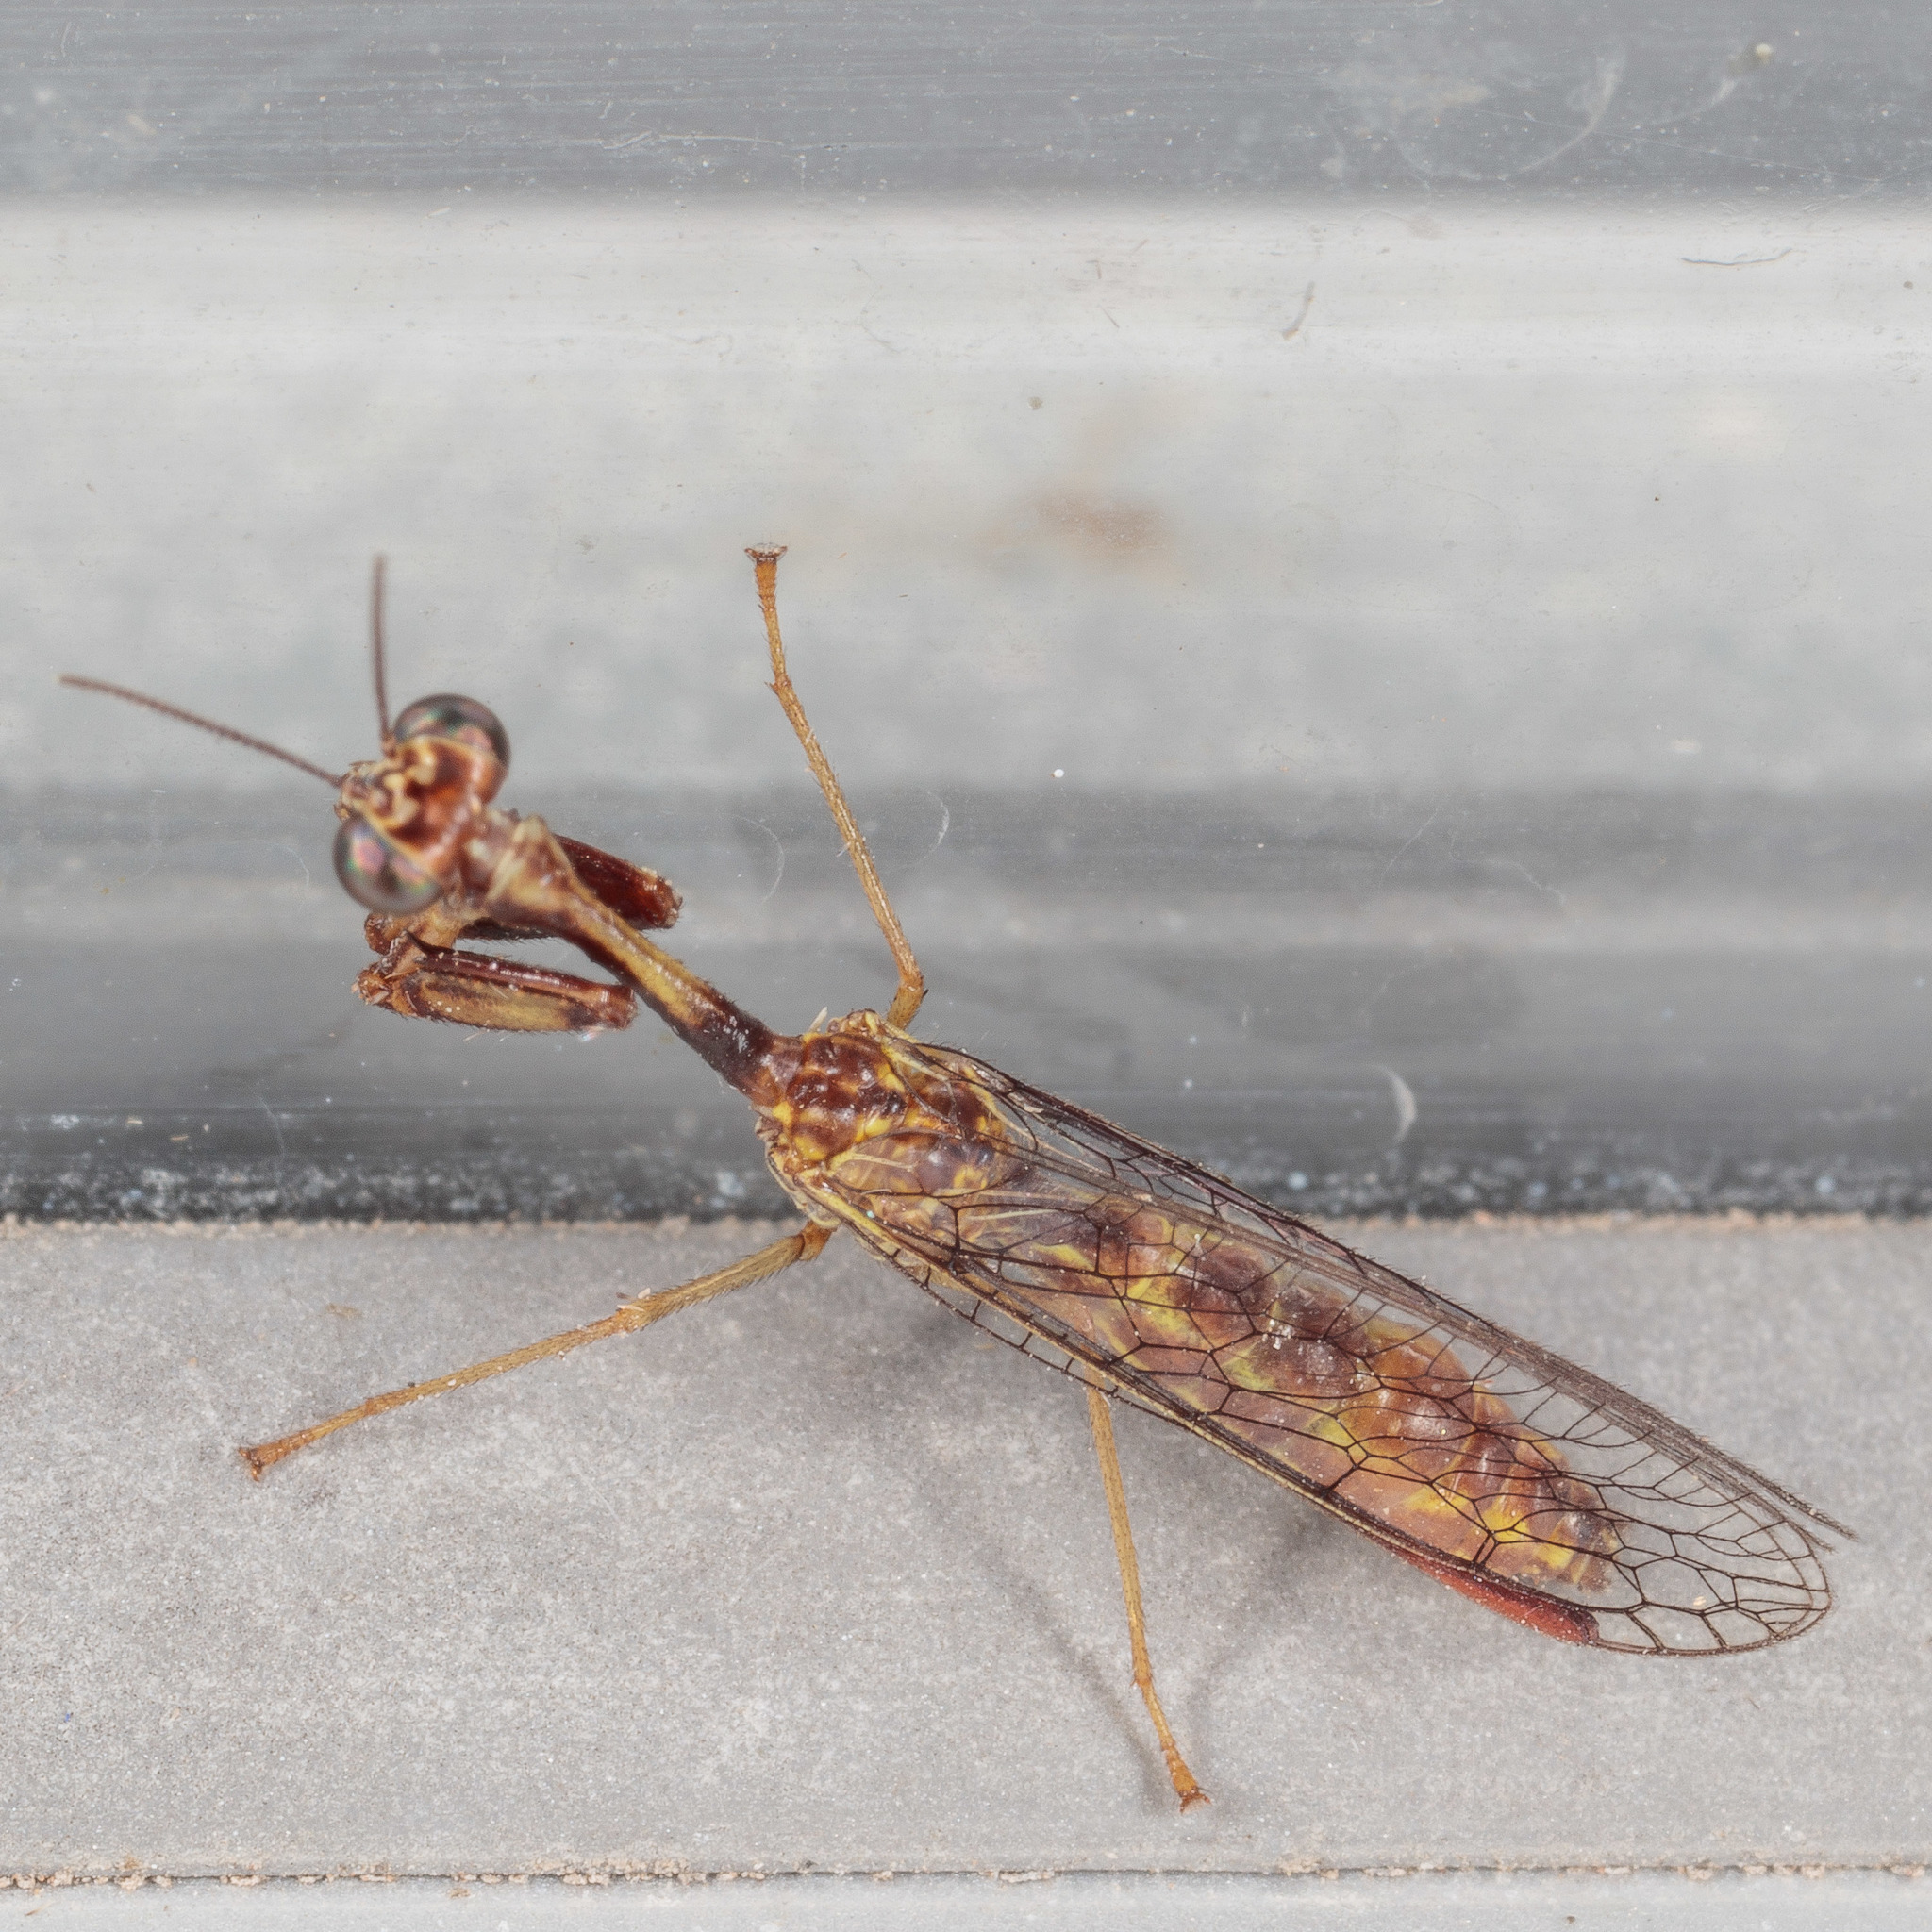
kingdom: Animalia
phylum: Arthropoda
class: Insecta
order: Neuroptera
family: Mantispidae
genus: Leptomantispa
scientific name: Leptomantispa pulchella
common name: Stevens's mantidfly
